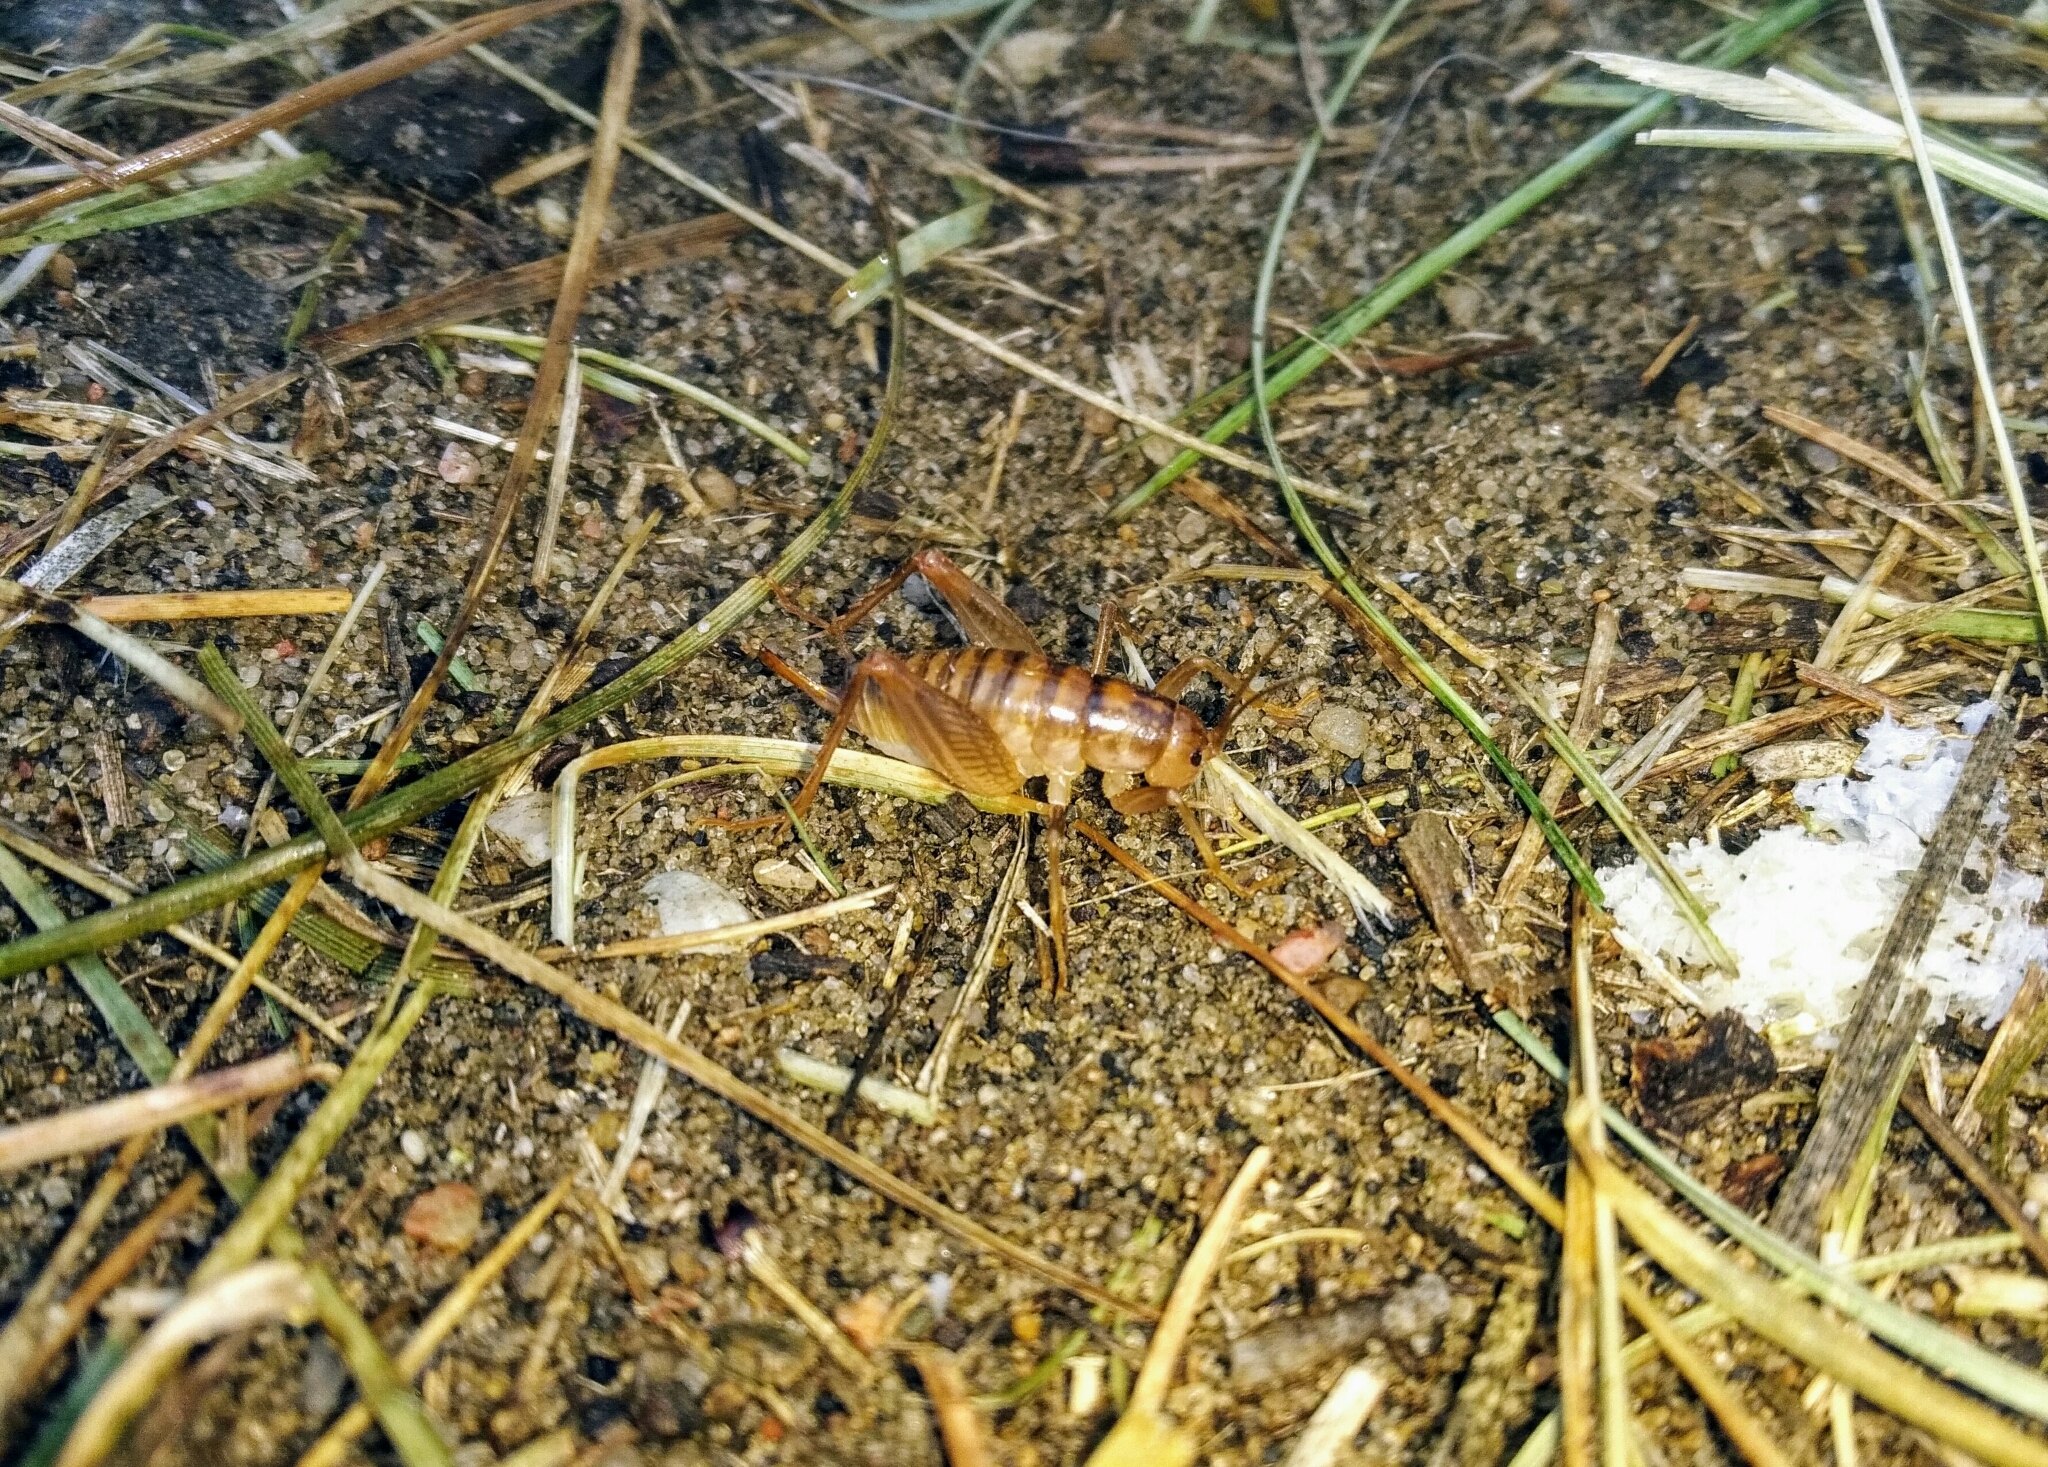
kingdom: Animalia
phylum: Arthropoda
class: Insecta
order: Orthoptera
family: Rhaphidophoridae
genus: Ceuthophilus
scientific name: Ceuthophilus pallescens
